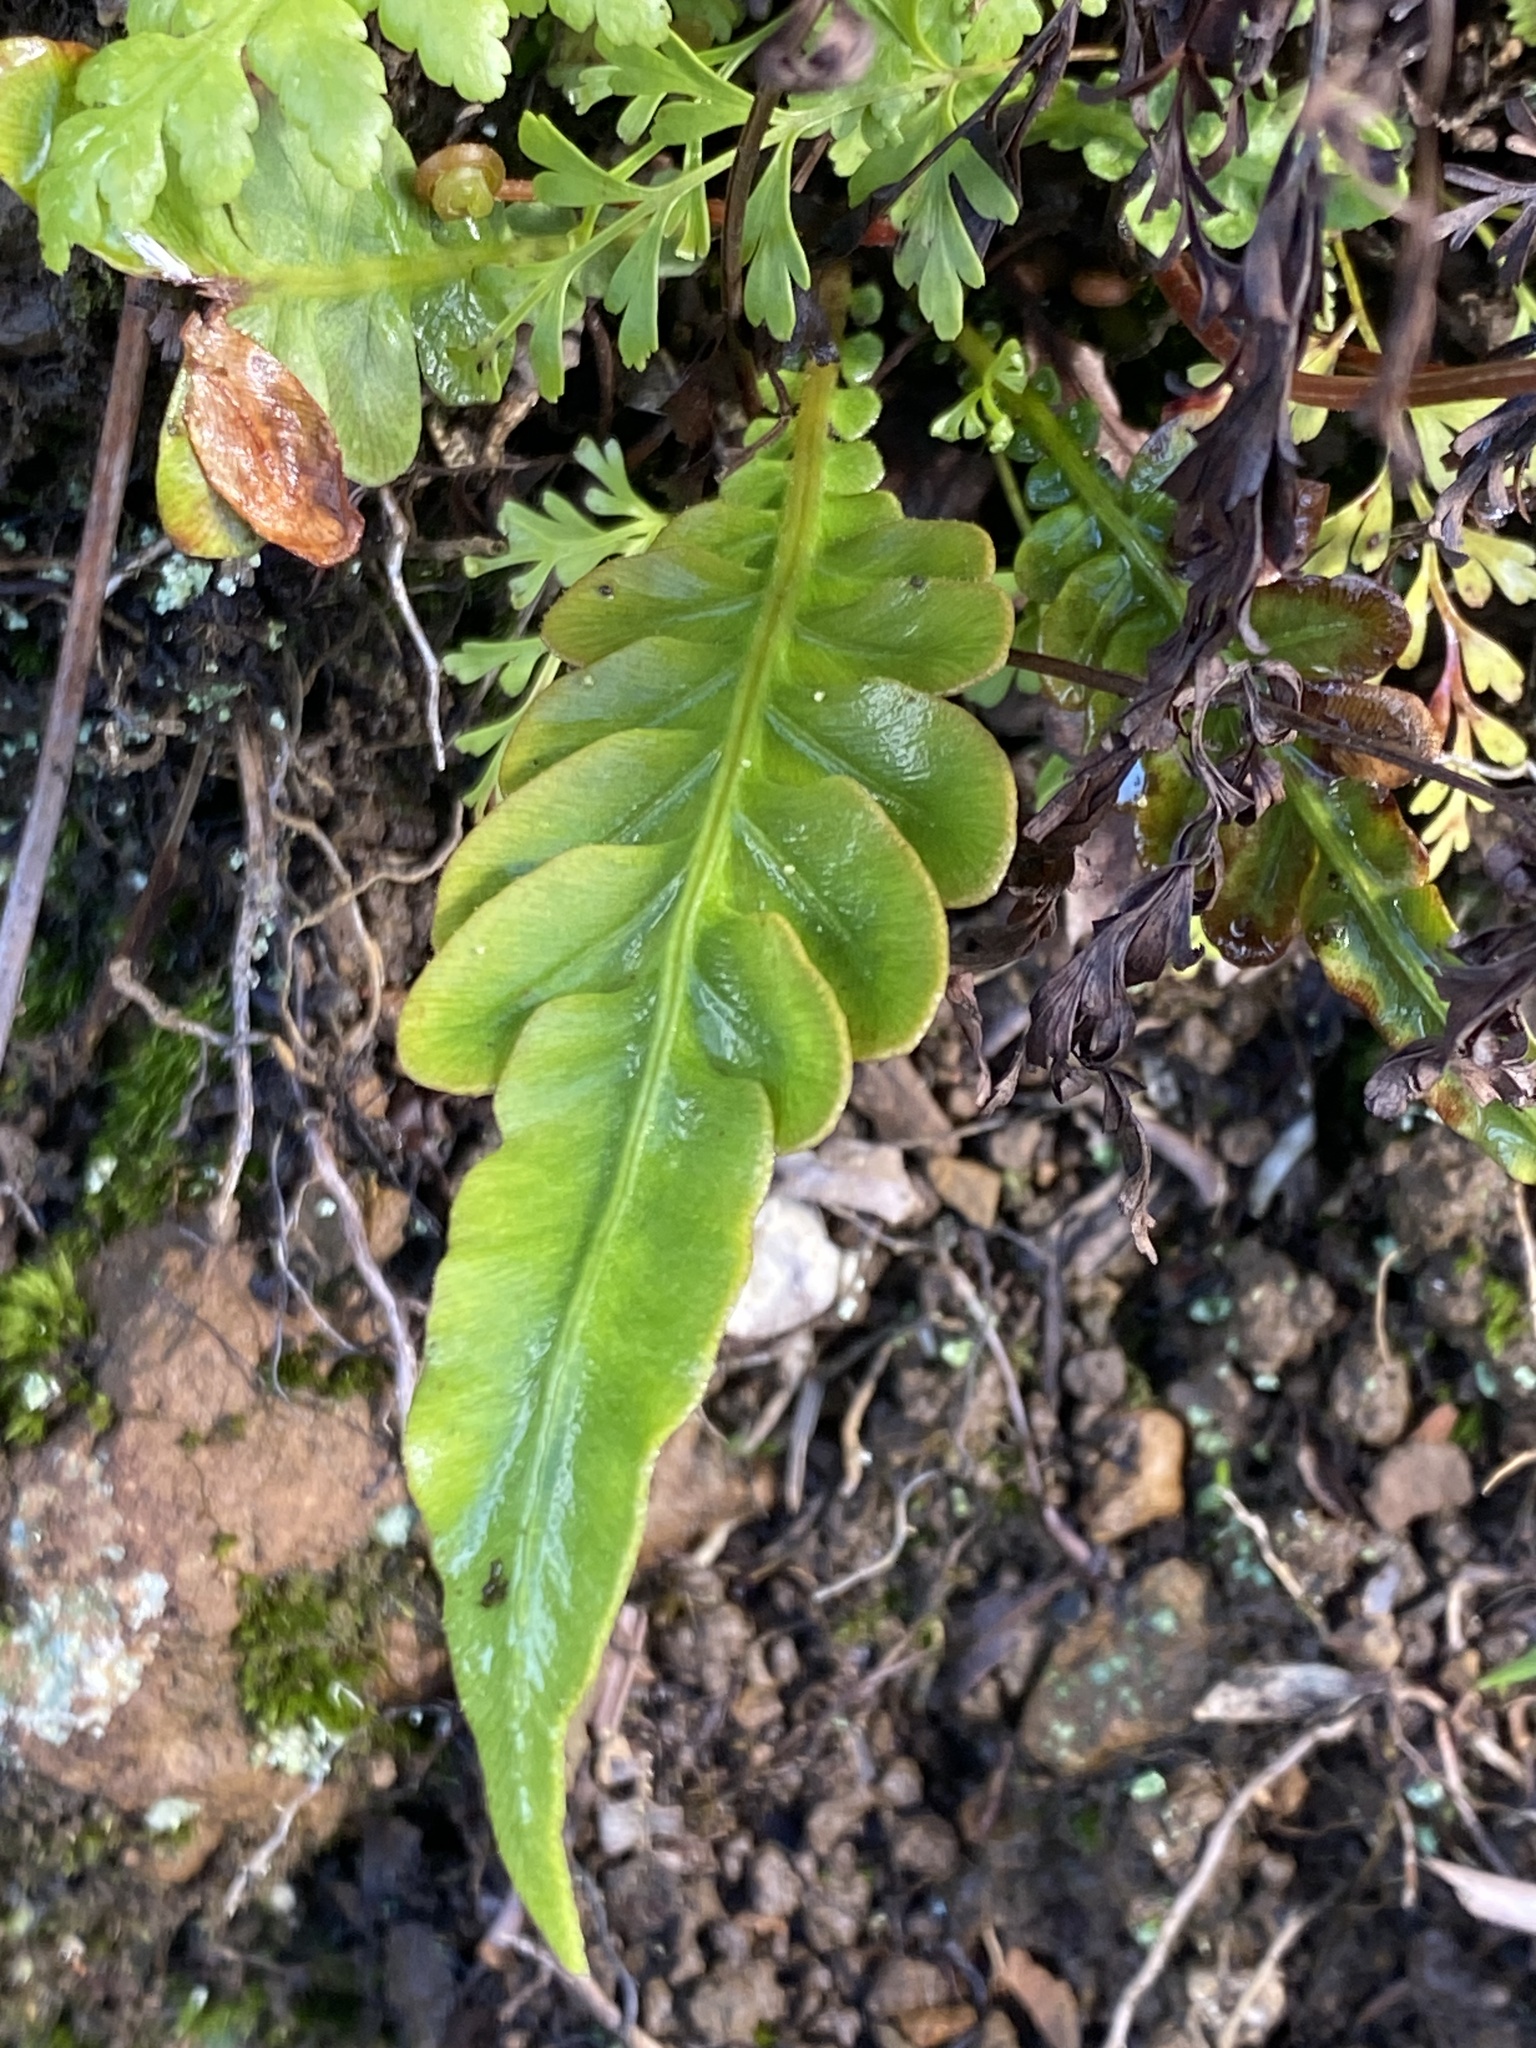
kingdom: Plantae
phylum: Tracheophyta
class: Polypodiopsida
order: Polypodiales
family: Blechnaceae
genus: Blechnum
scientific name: Blechnum appendiculatum
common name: Palm fern
